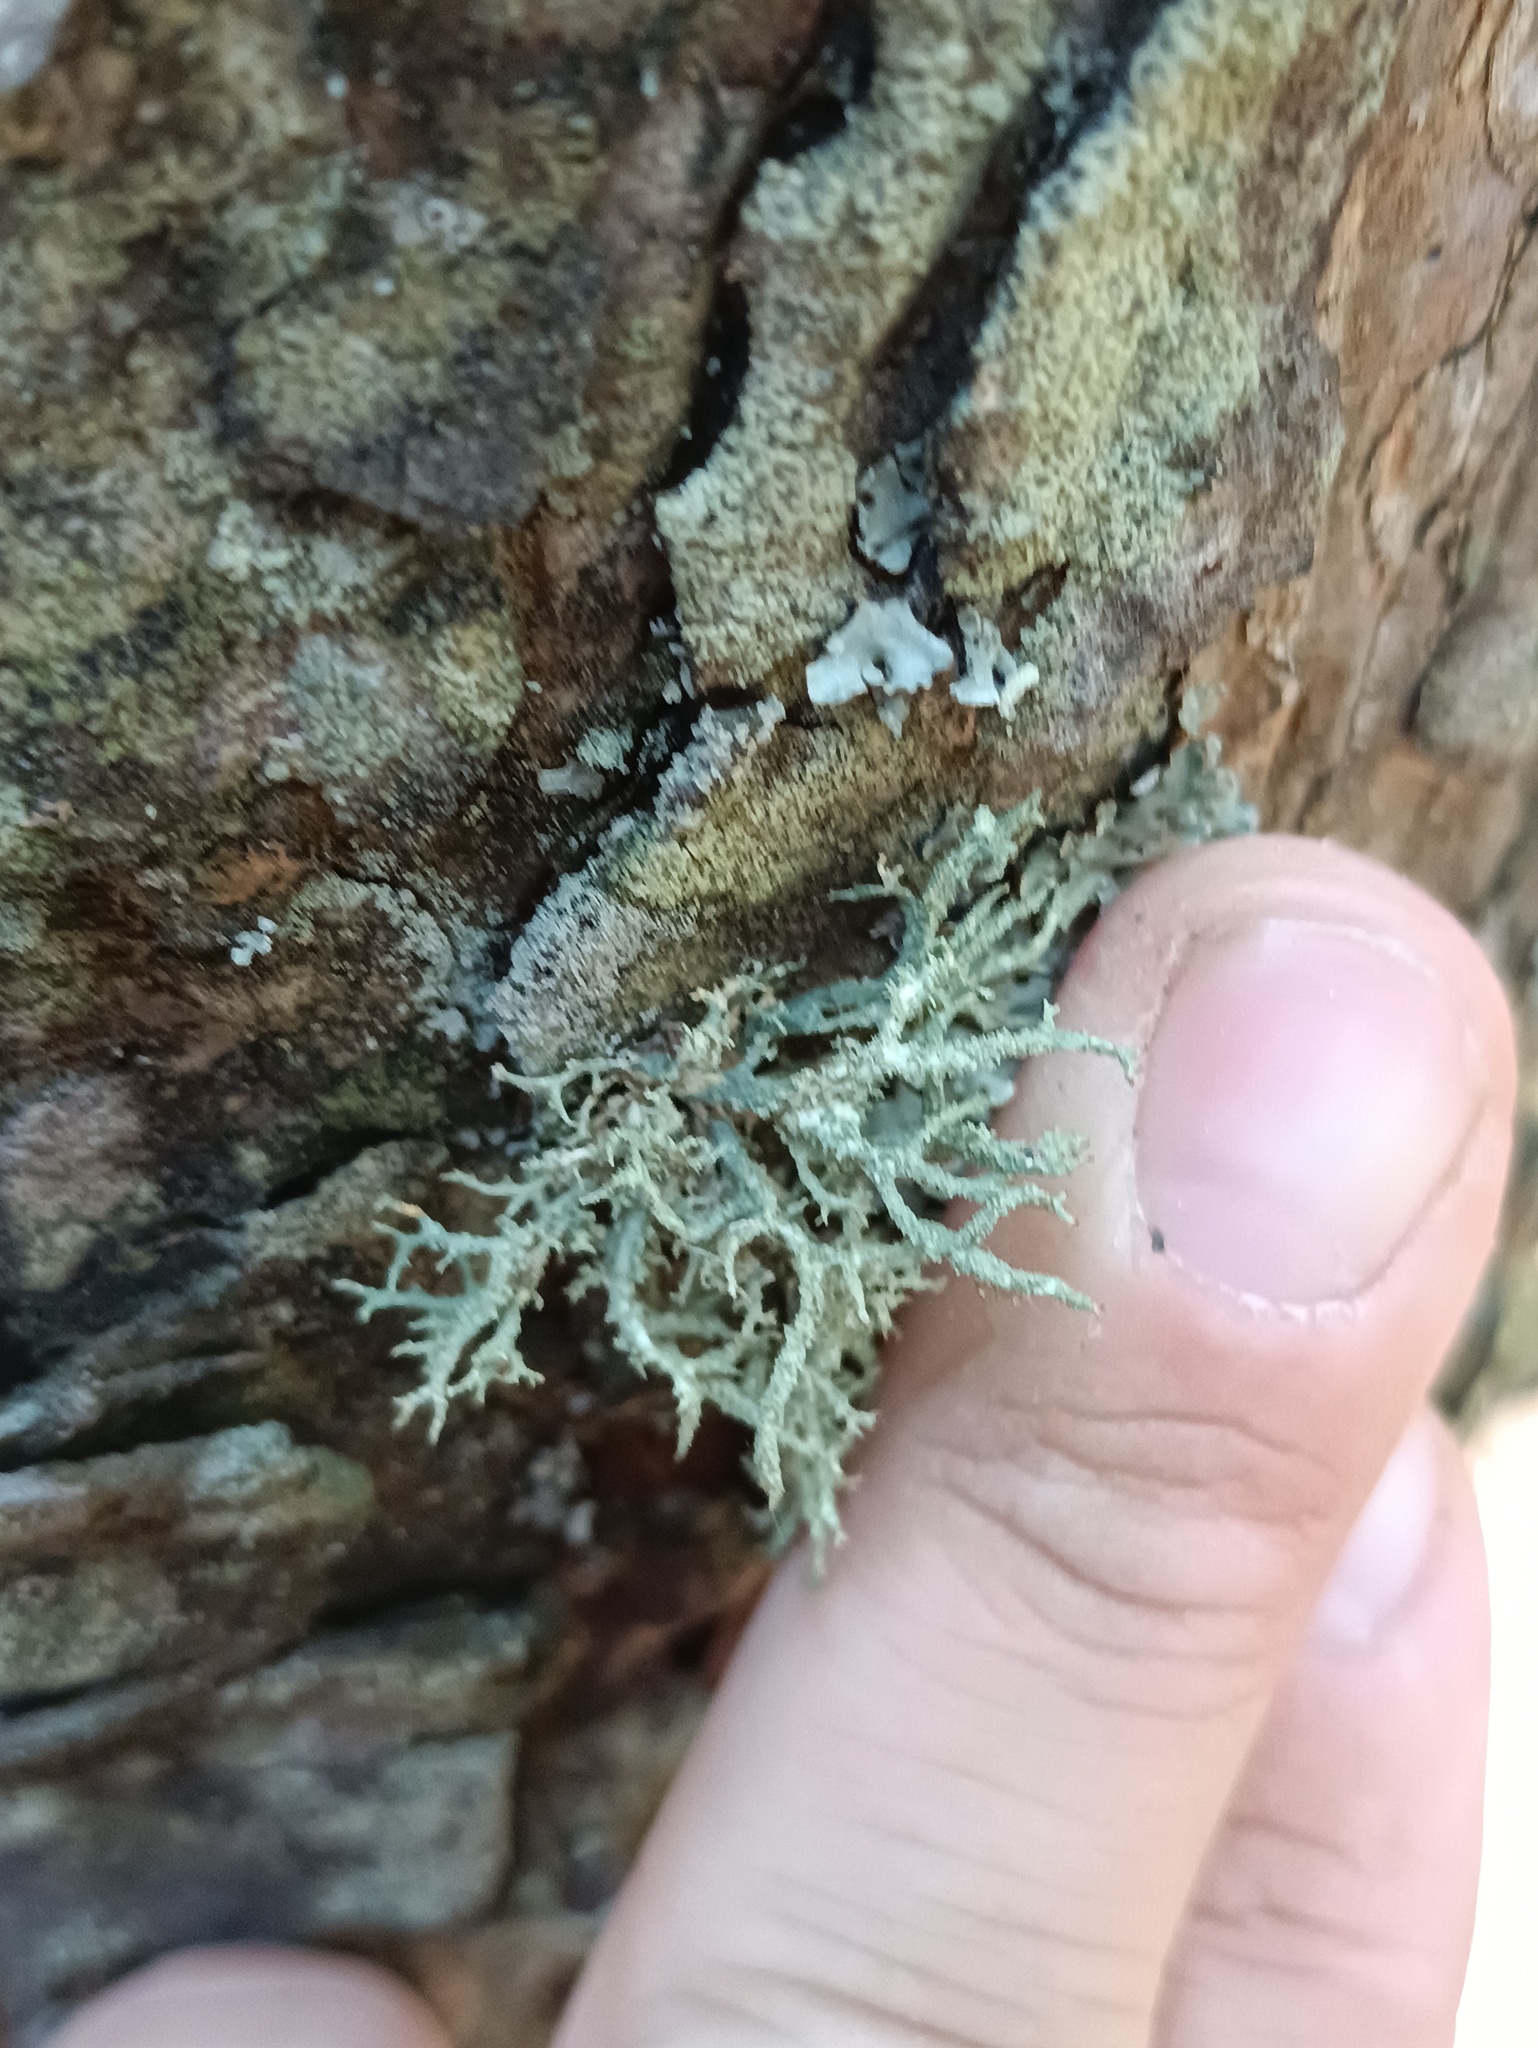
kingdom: Fungi
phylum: Ascomycota
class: Lecanoromycetes
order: Lecanorales
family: Parmeliaceae
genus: Evernia
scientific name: Evernia mesomorpha
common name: Boreal oak moss lichen
